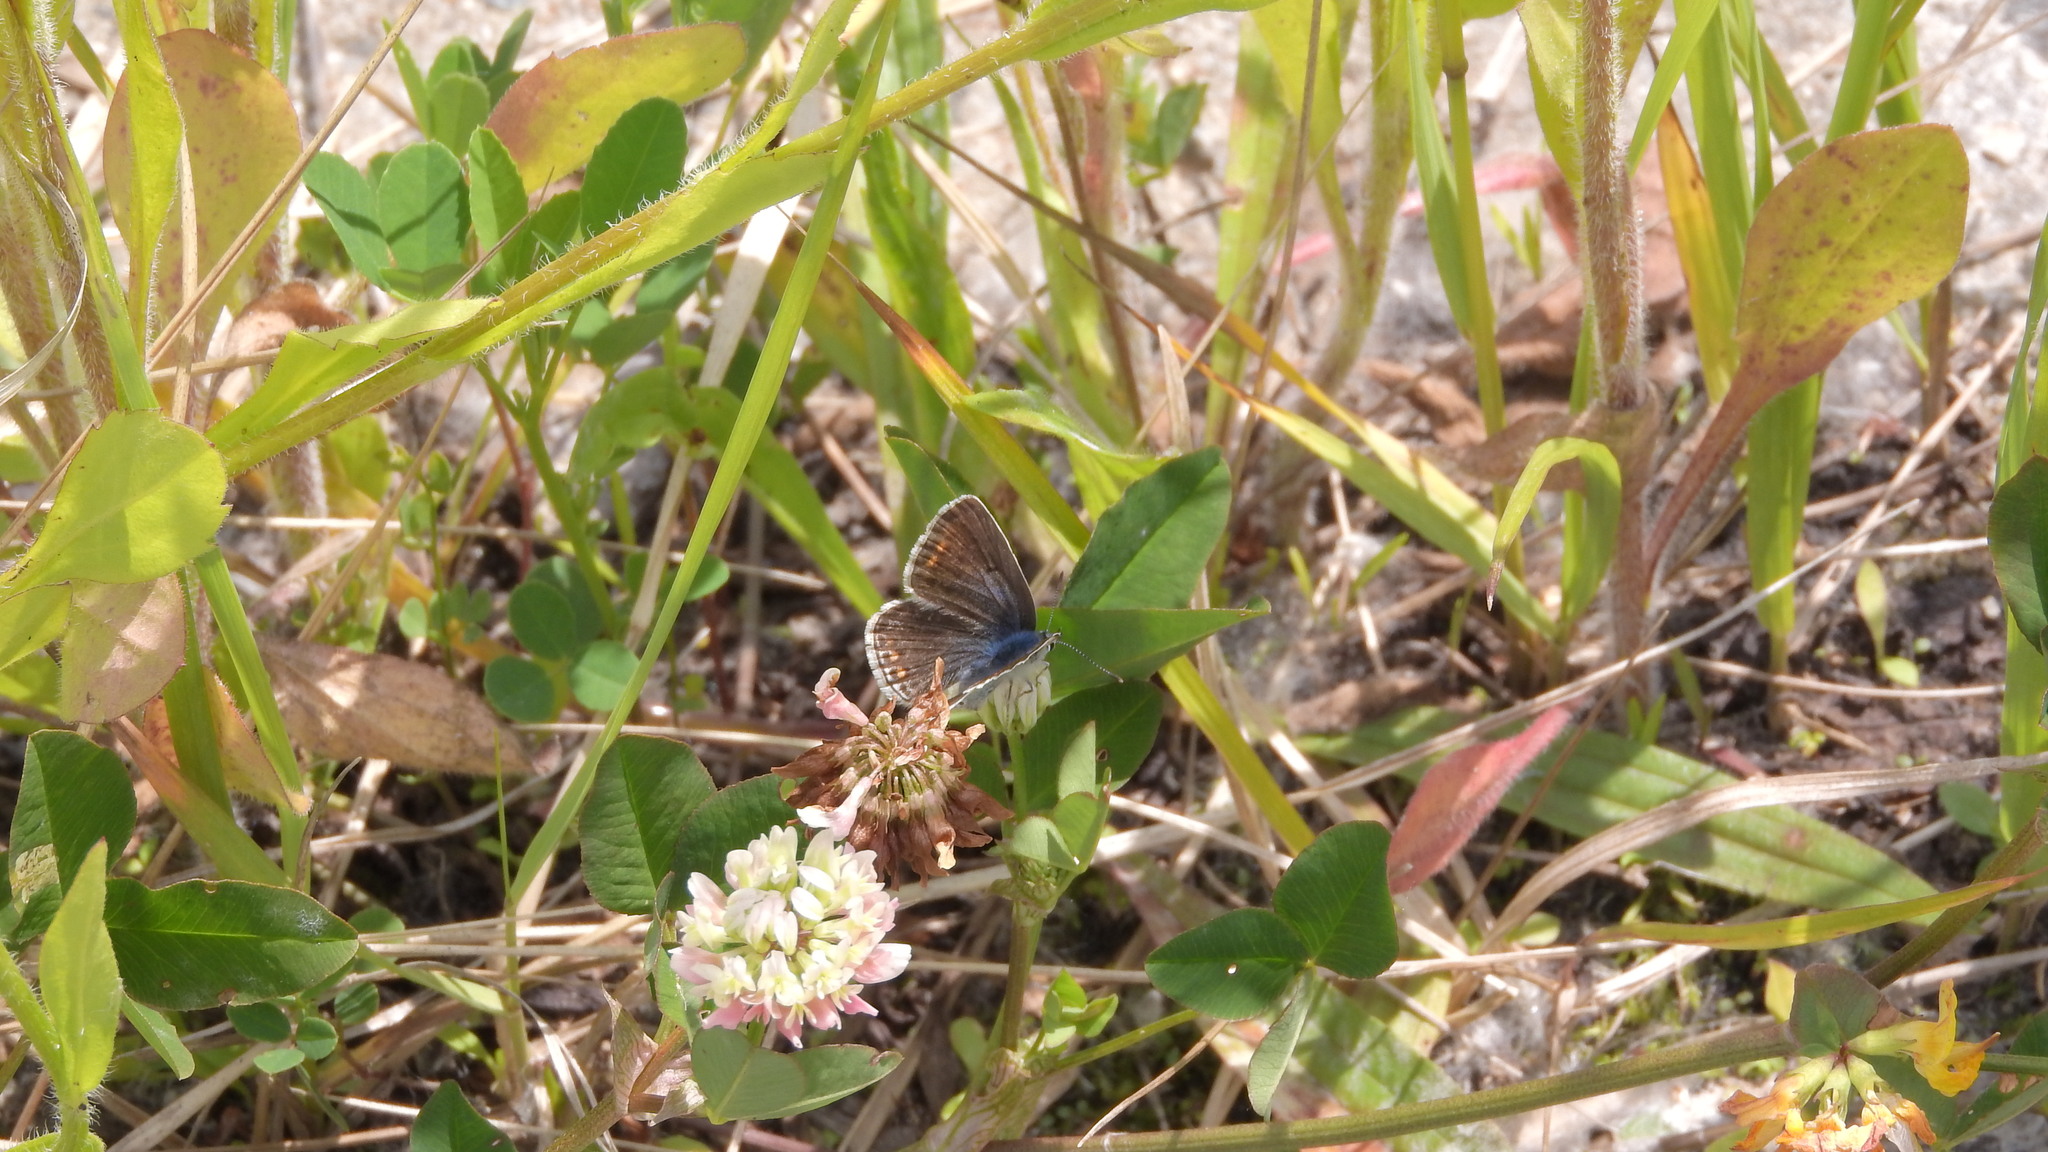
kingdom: Animalia
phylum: Arthropoda
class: Insecta
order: Lepidoptera
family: Lycaenidae
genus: Polyommatus
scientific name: Polyommatus icarus
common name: Common blue
